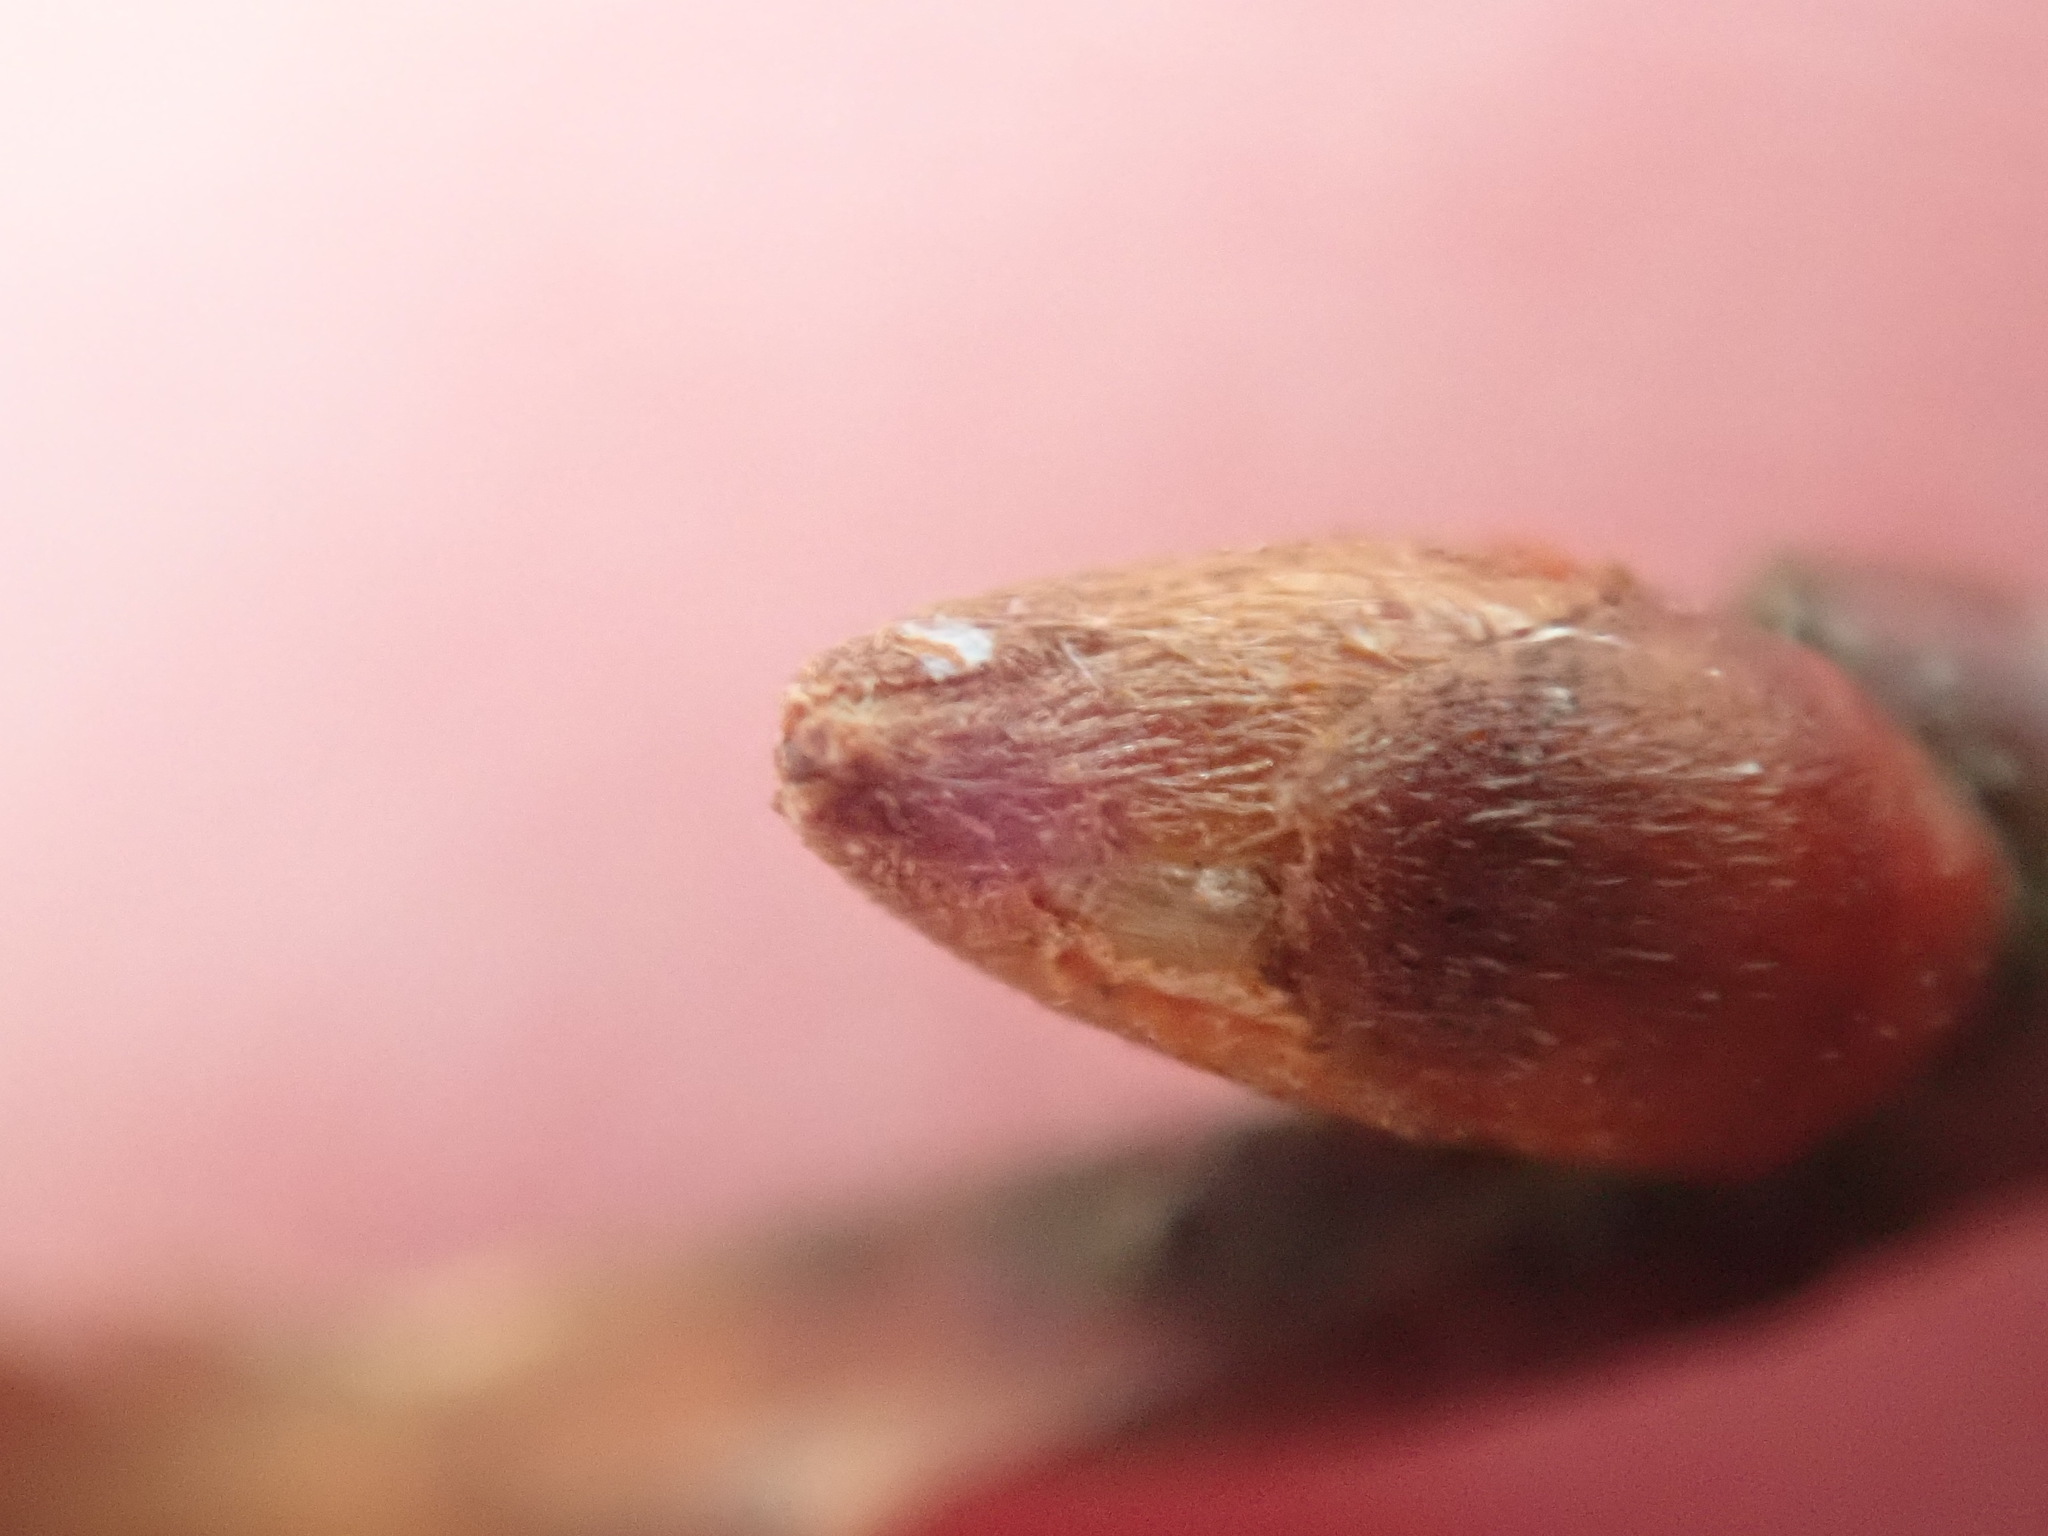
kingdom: Plantae
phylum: Tracheophyta
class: Magnoliopsida
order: Fagales
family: Fagaceae
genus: Castanea
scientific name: Castanea dentata
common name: American chestnut
